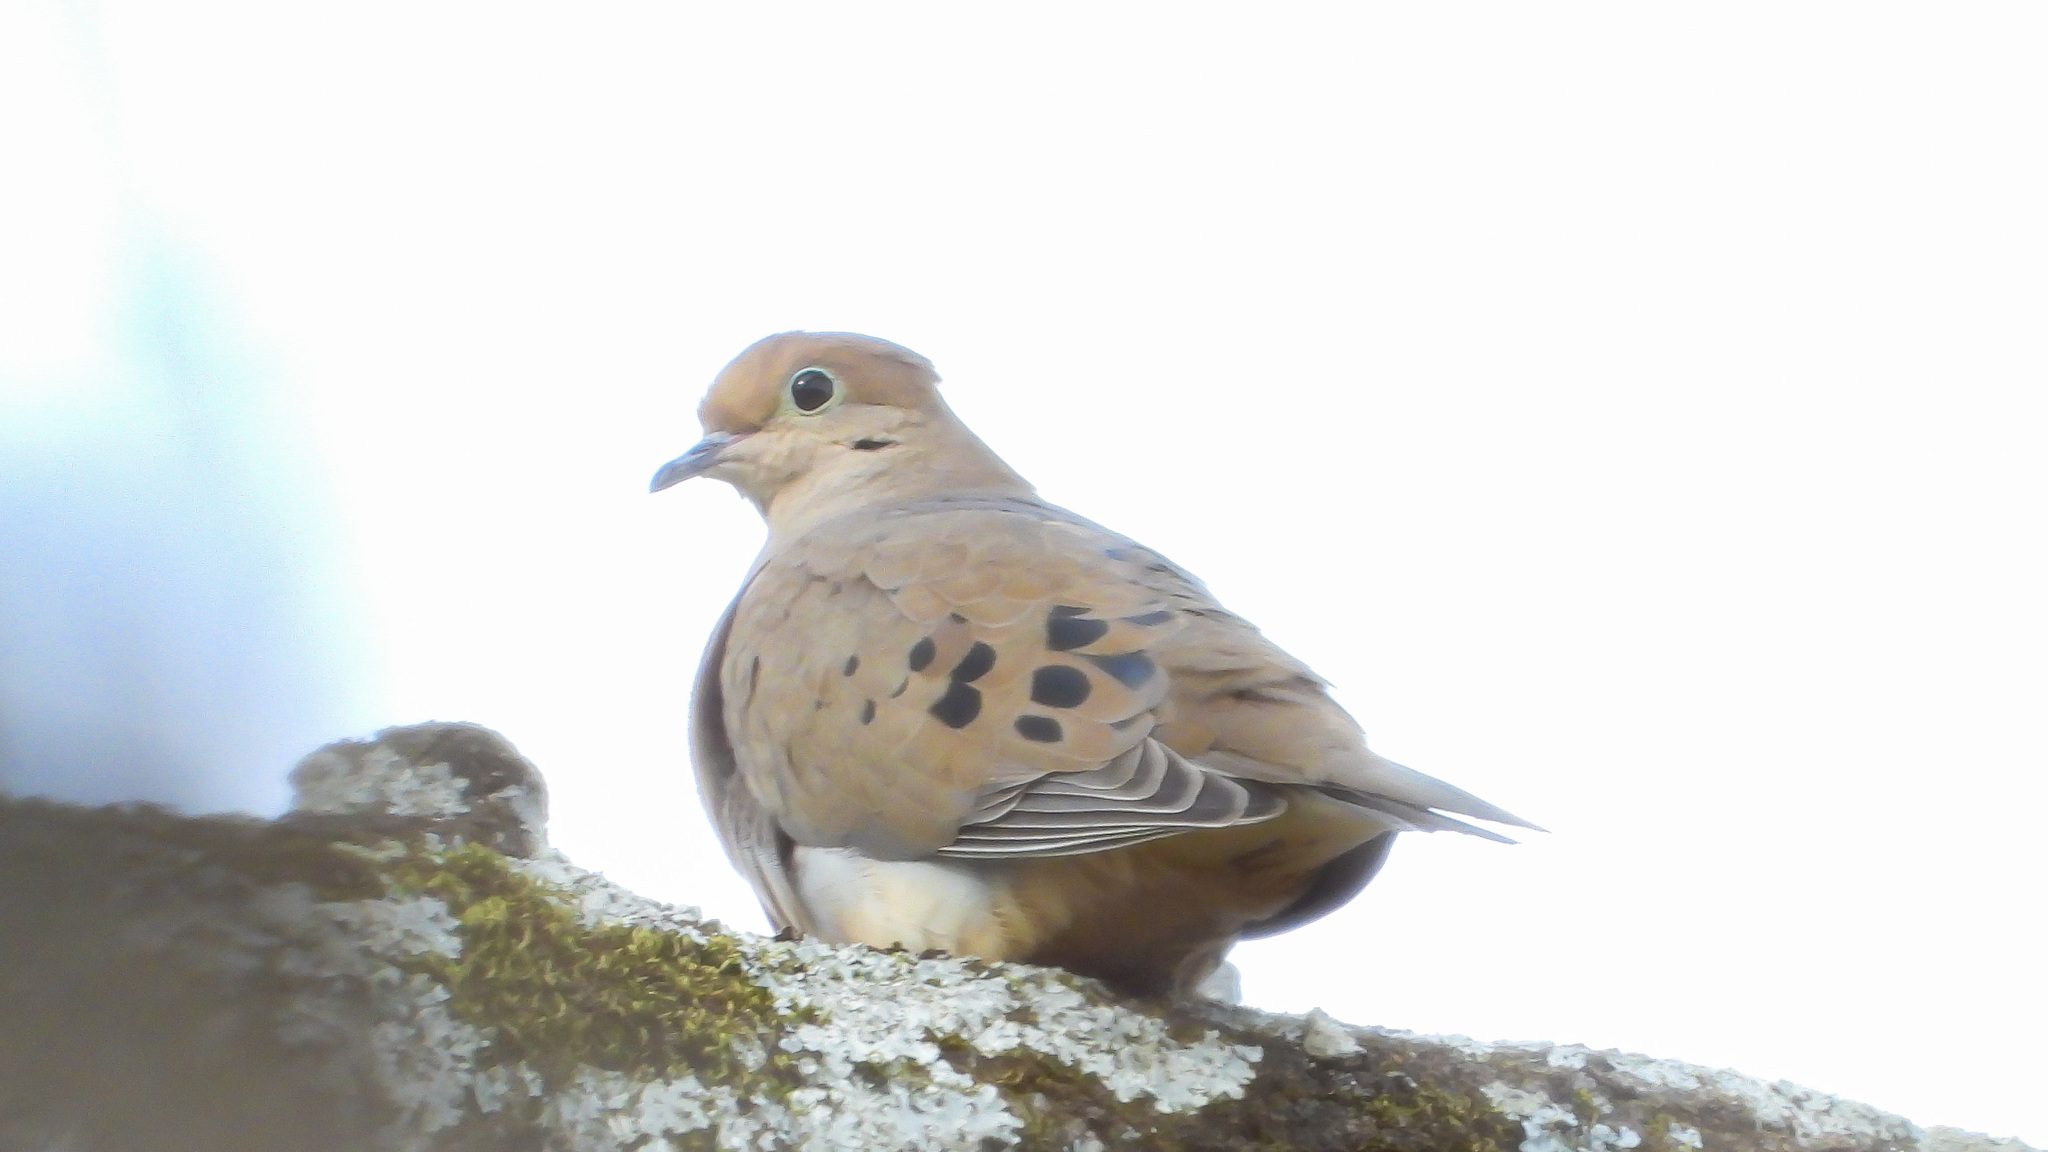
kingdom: Animalia
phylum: Chordata
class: Aves
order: Columbiformes
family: Columbidae
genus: Zenaida
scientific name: Zenaida macroura
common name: Mourning dove
